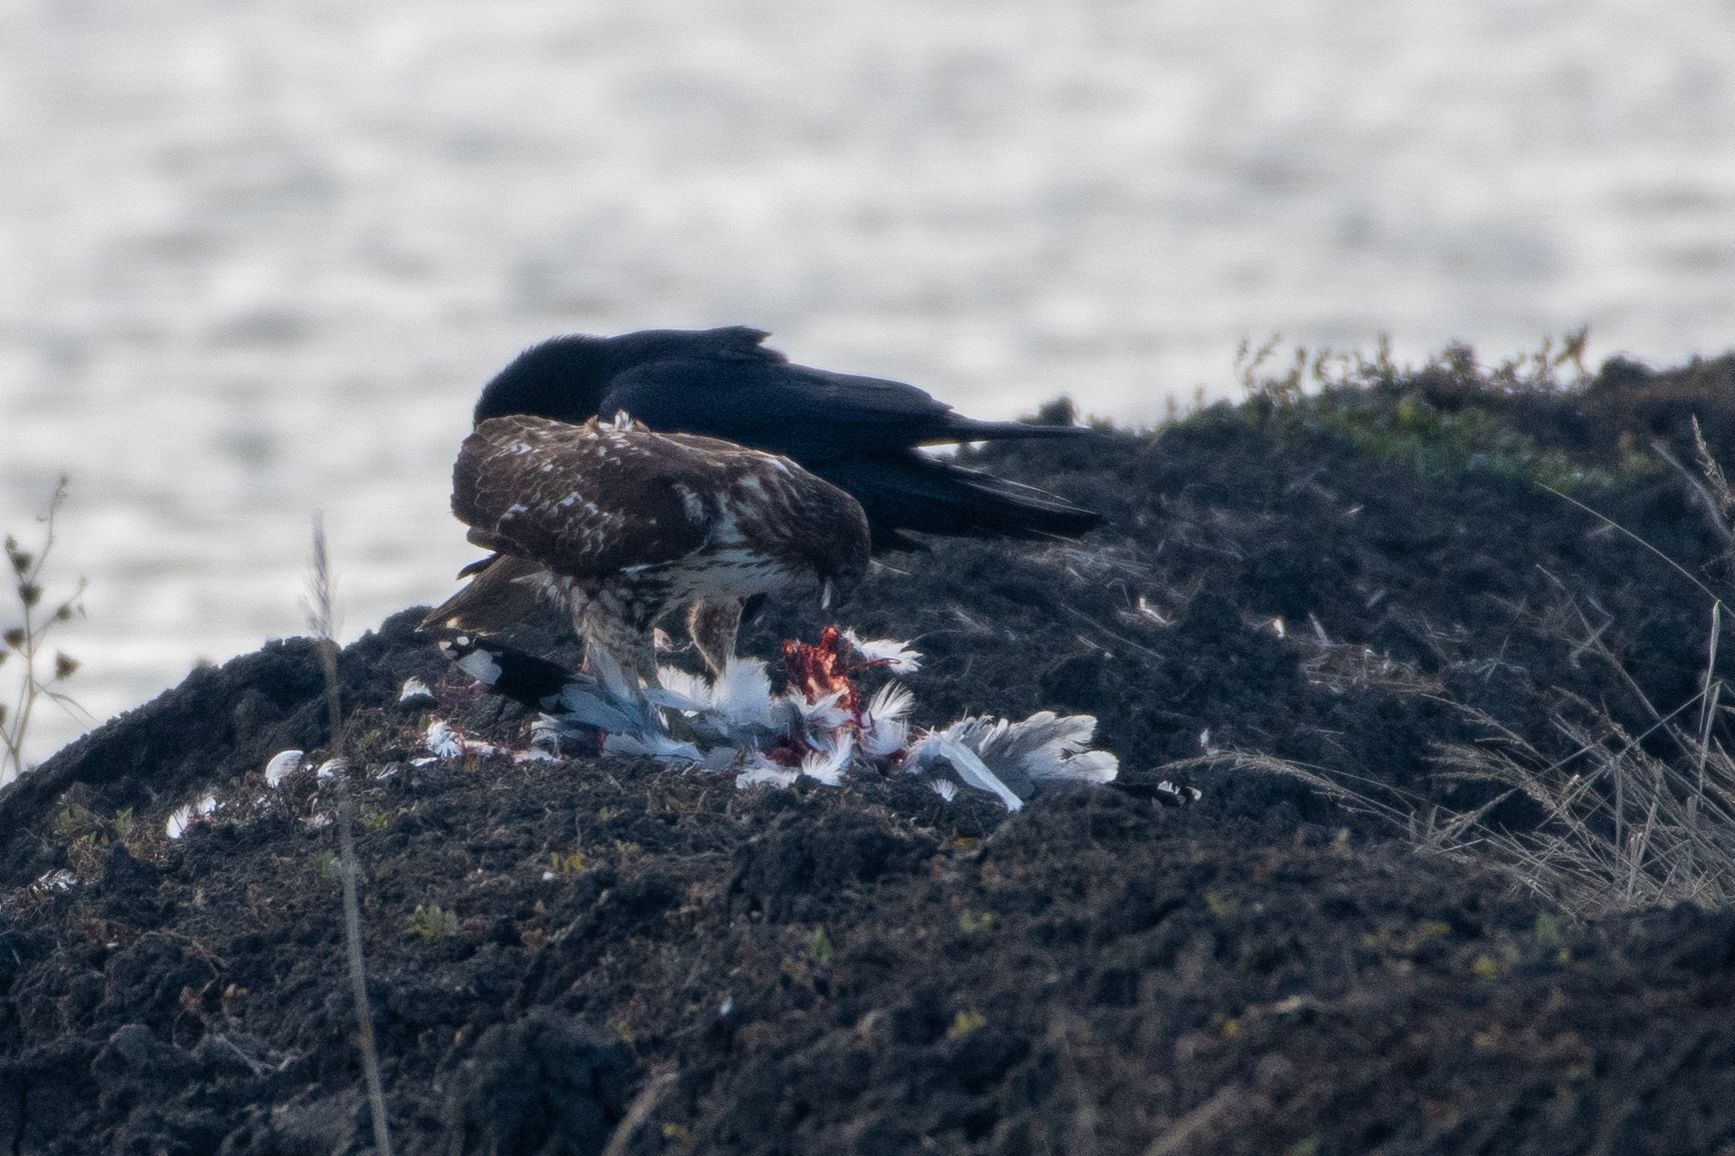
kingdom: Animalia
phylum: Chordata
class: Aves
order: Accipitriformes
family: Accipitridae
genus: Buteo
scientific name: Buteo jamaicensis
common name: Red-tailed hawk
